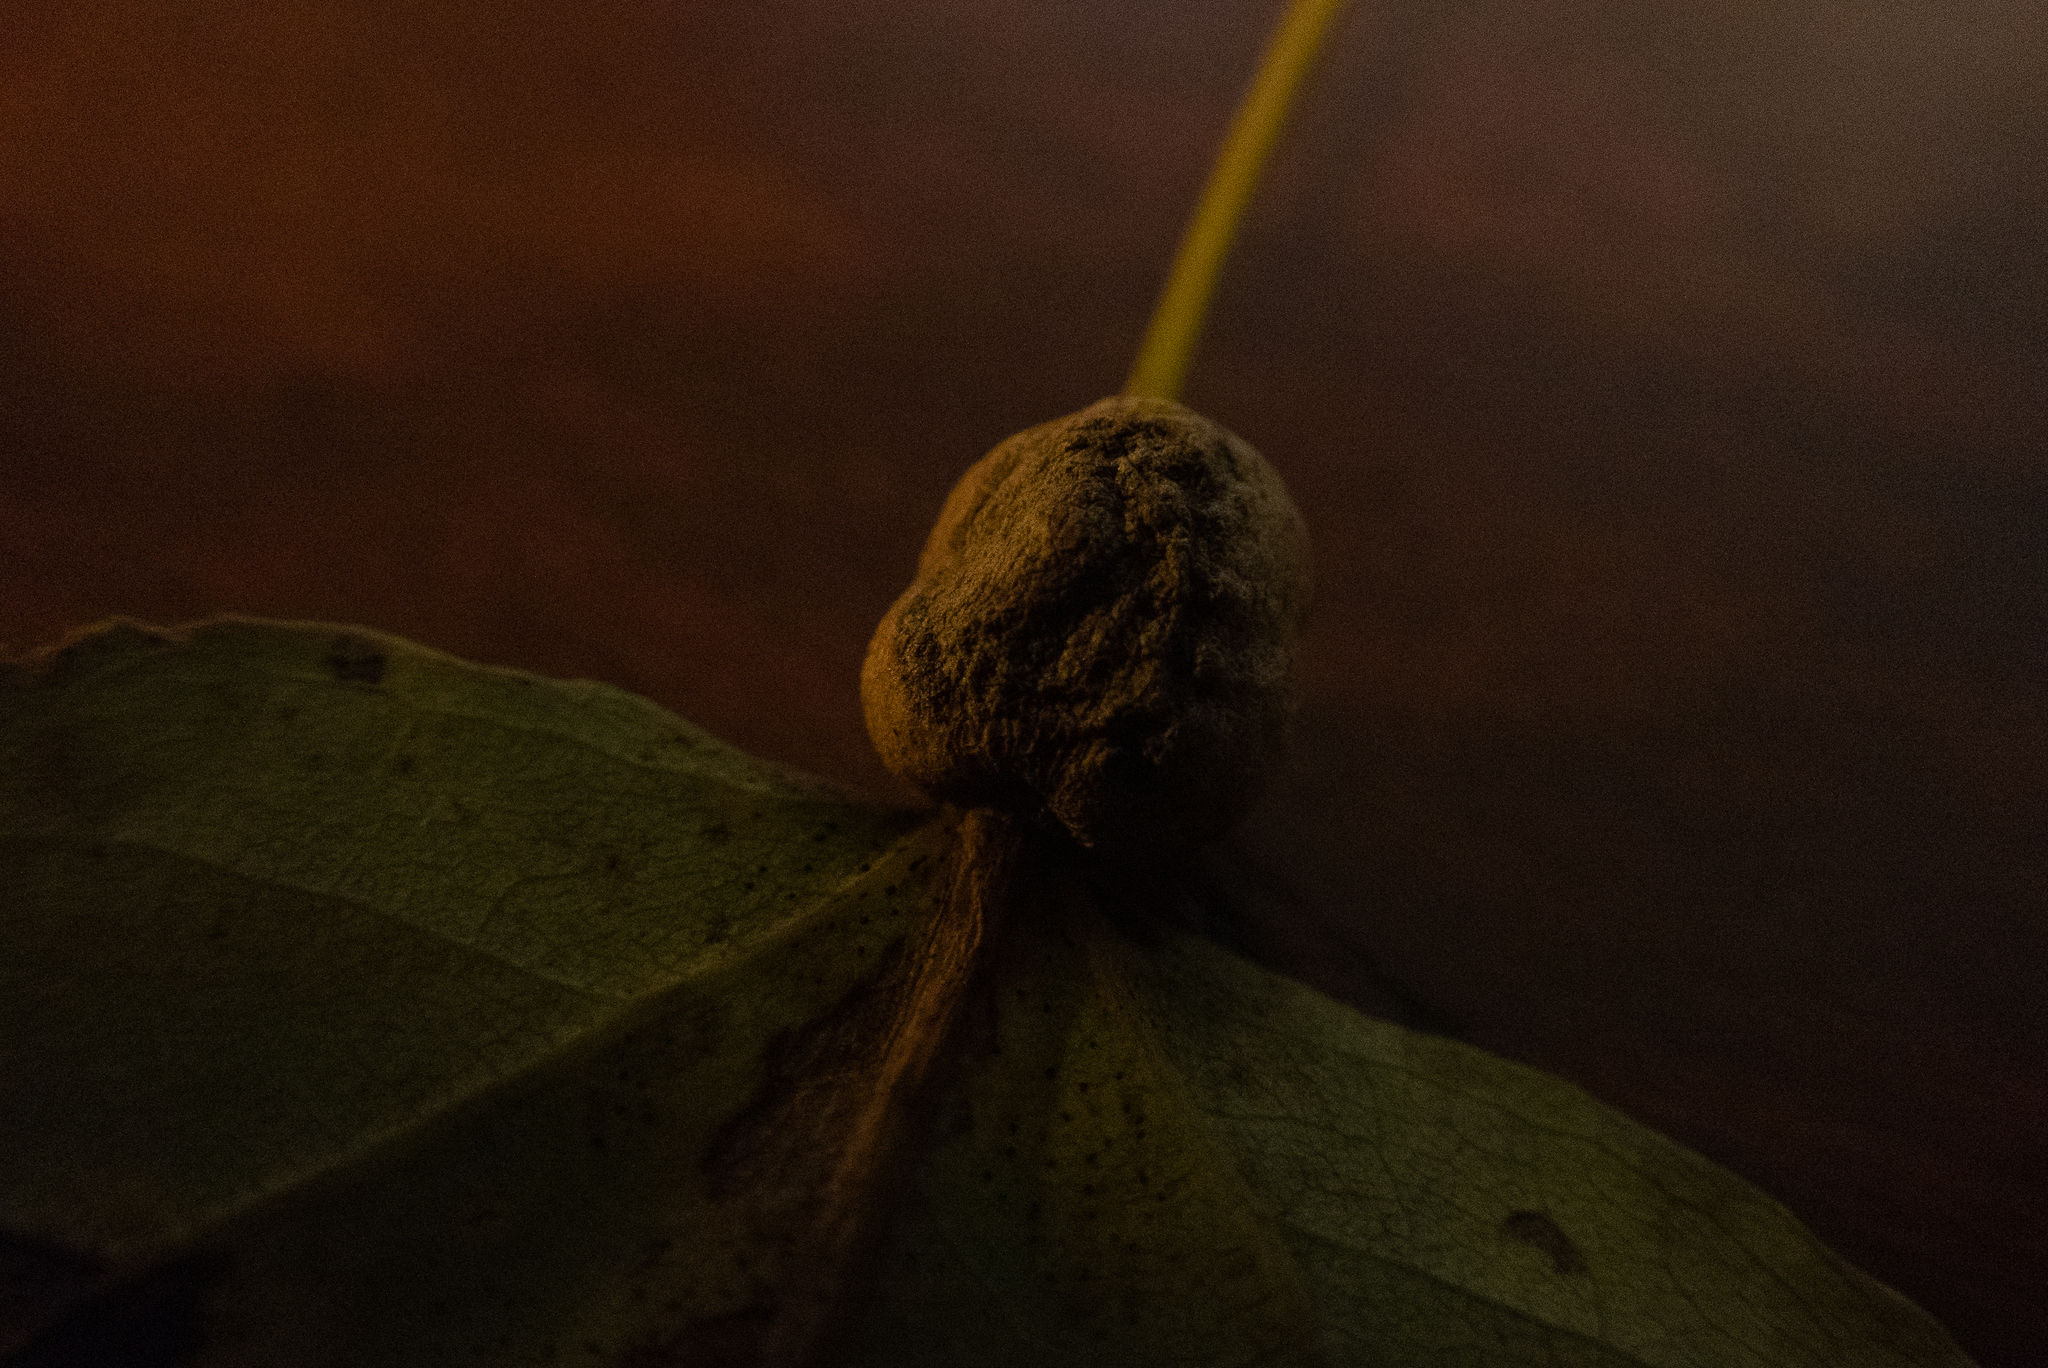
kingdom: Animalia
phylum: Arthropoda
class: Insecta
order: Lepidoptera
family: Nepticulidae
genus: Ectoedemia
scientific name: Ectoedemia populella
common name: Aspen petiole gall moth
